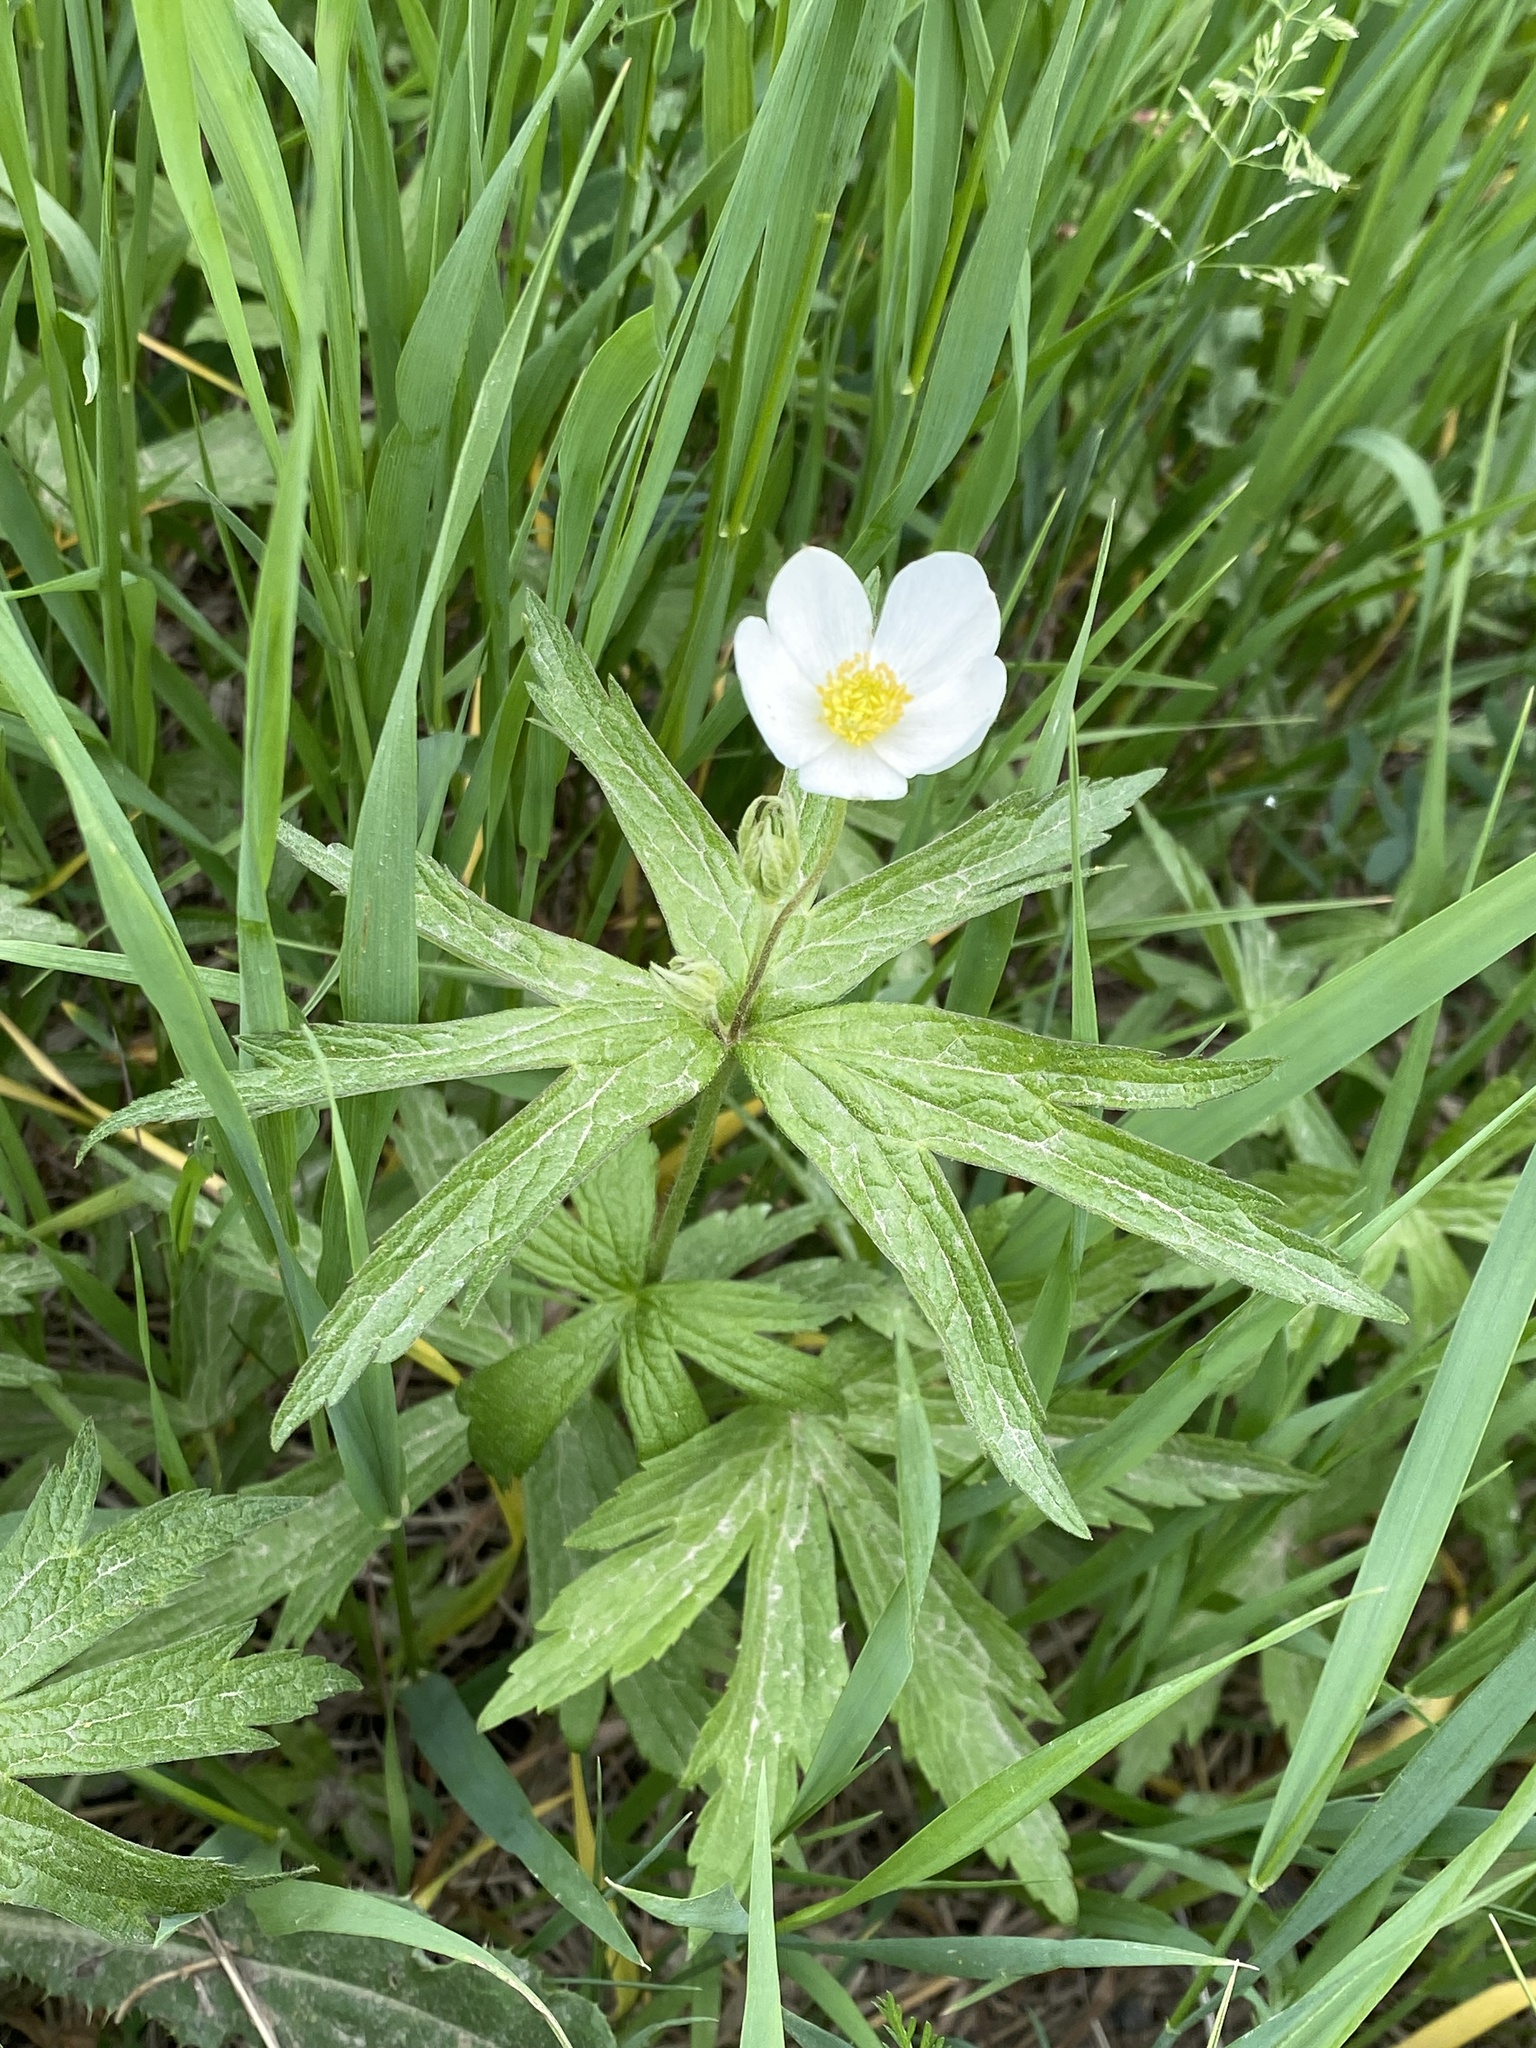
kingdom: Plantae
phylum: Tracheophyta
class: Magnoliopsida
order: Ranunculales
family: Ranunculaceae
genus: Anemonastrum
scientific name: Anemonastrum canadense
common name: Canada anemone
